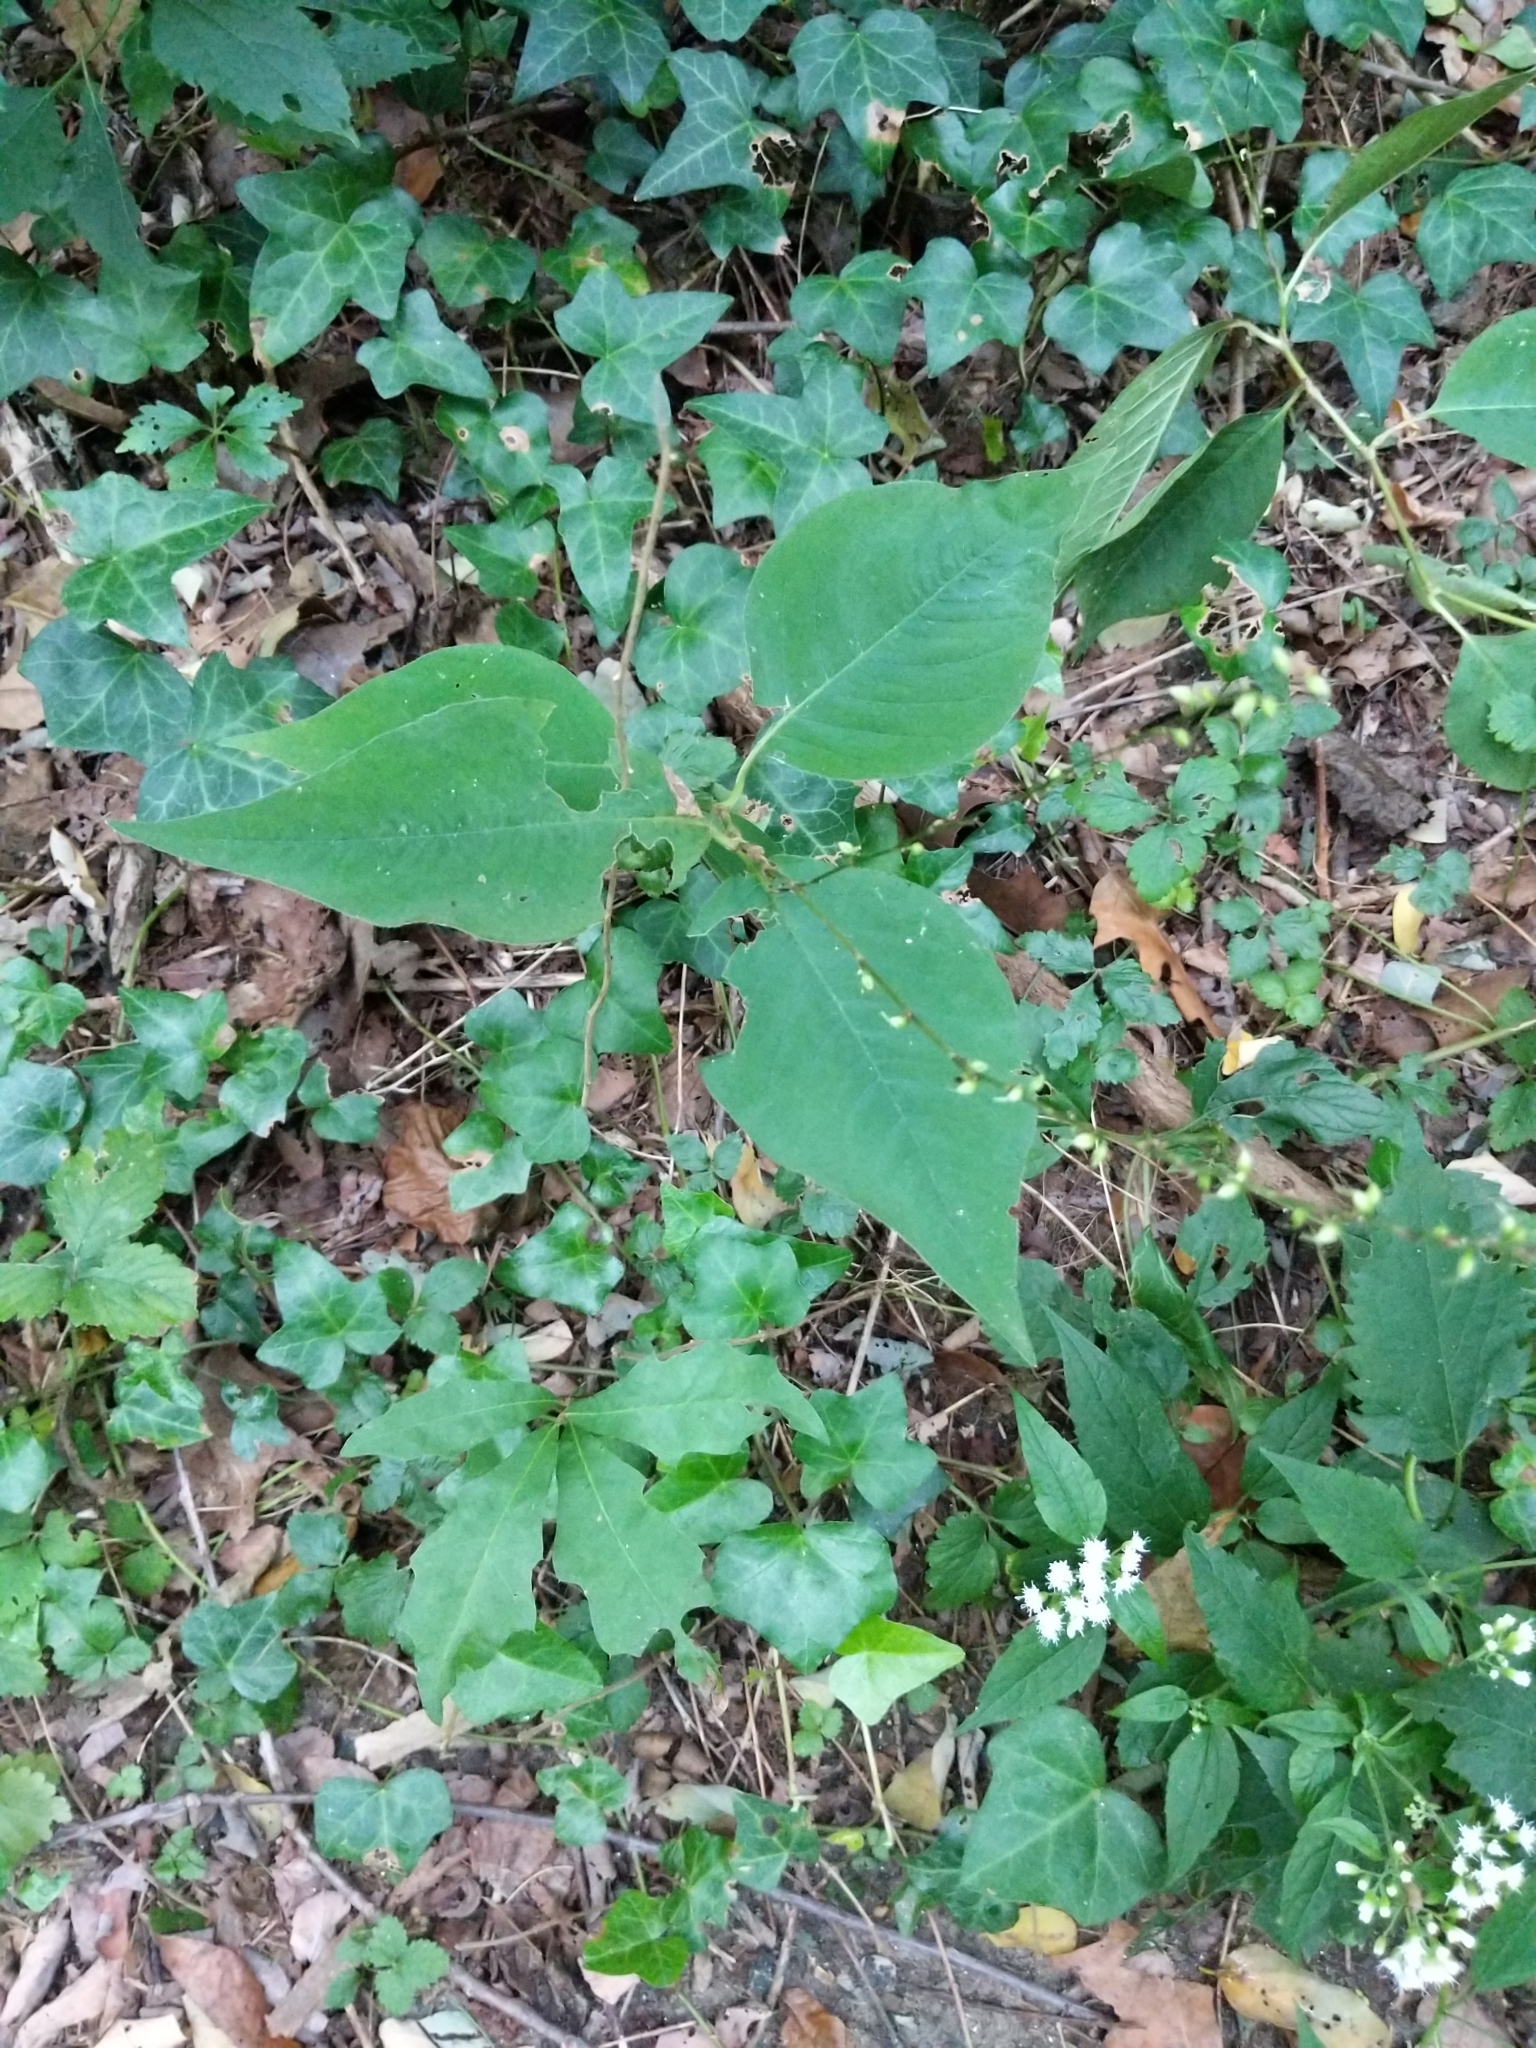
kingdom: Plantae
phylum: Tracheophyta
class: Magnoliopsida
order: Caryophyllales
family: Polygonaceae
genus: Persicaria
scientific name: Persicaria virginiana
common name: Jumpseed
